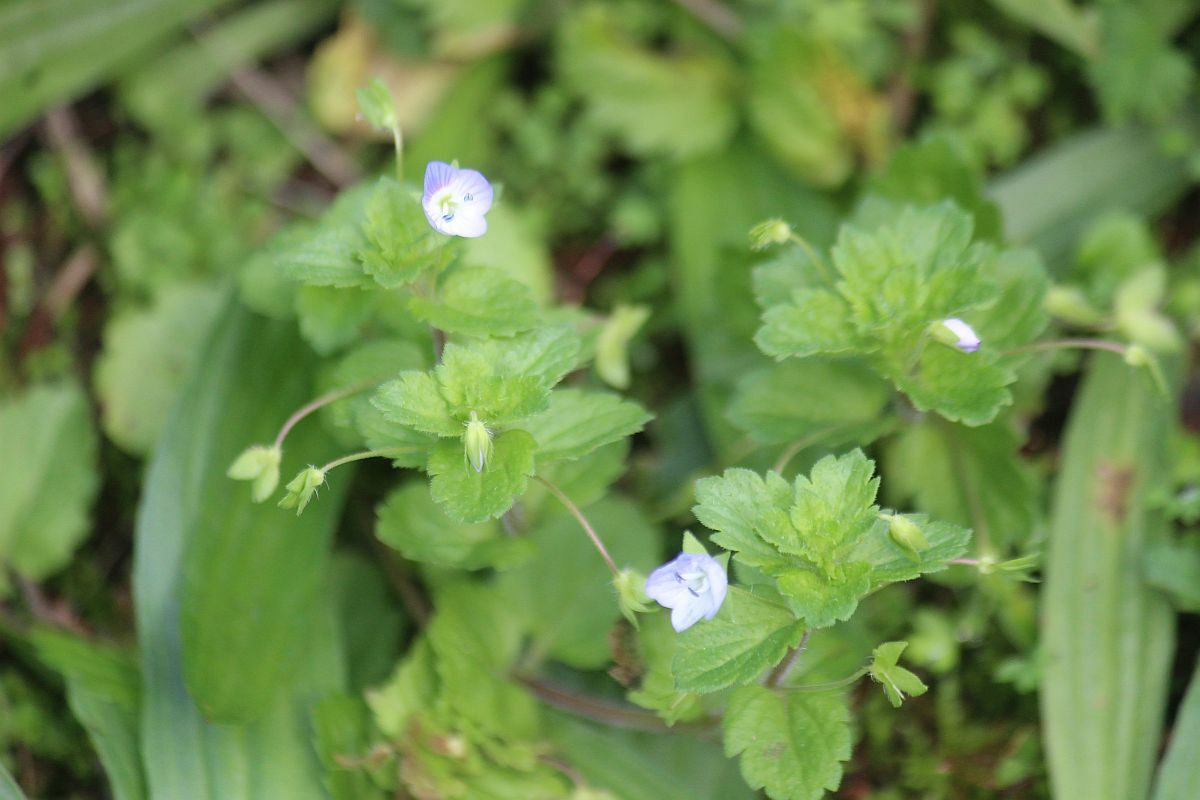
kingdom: Plantae
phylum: Tracheophyta
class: Magnoliopsida
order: Lamiales
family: Plantaginaceae
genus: Veronica
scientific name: Veronica persica
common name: Common field-speedwell
